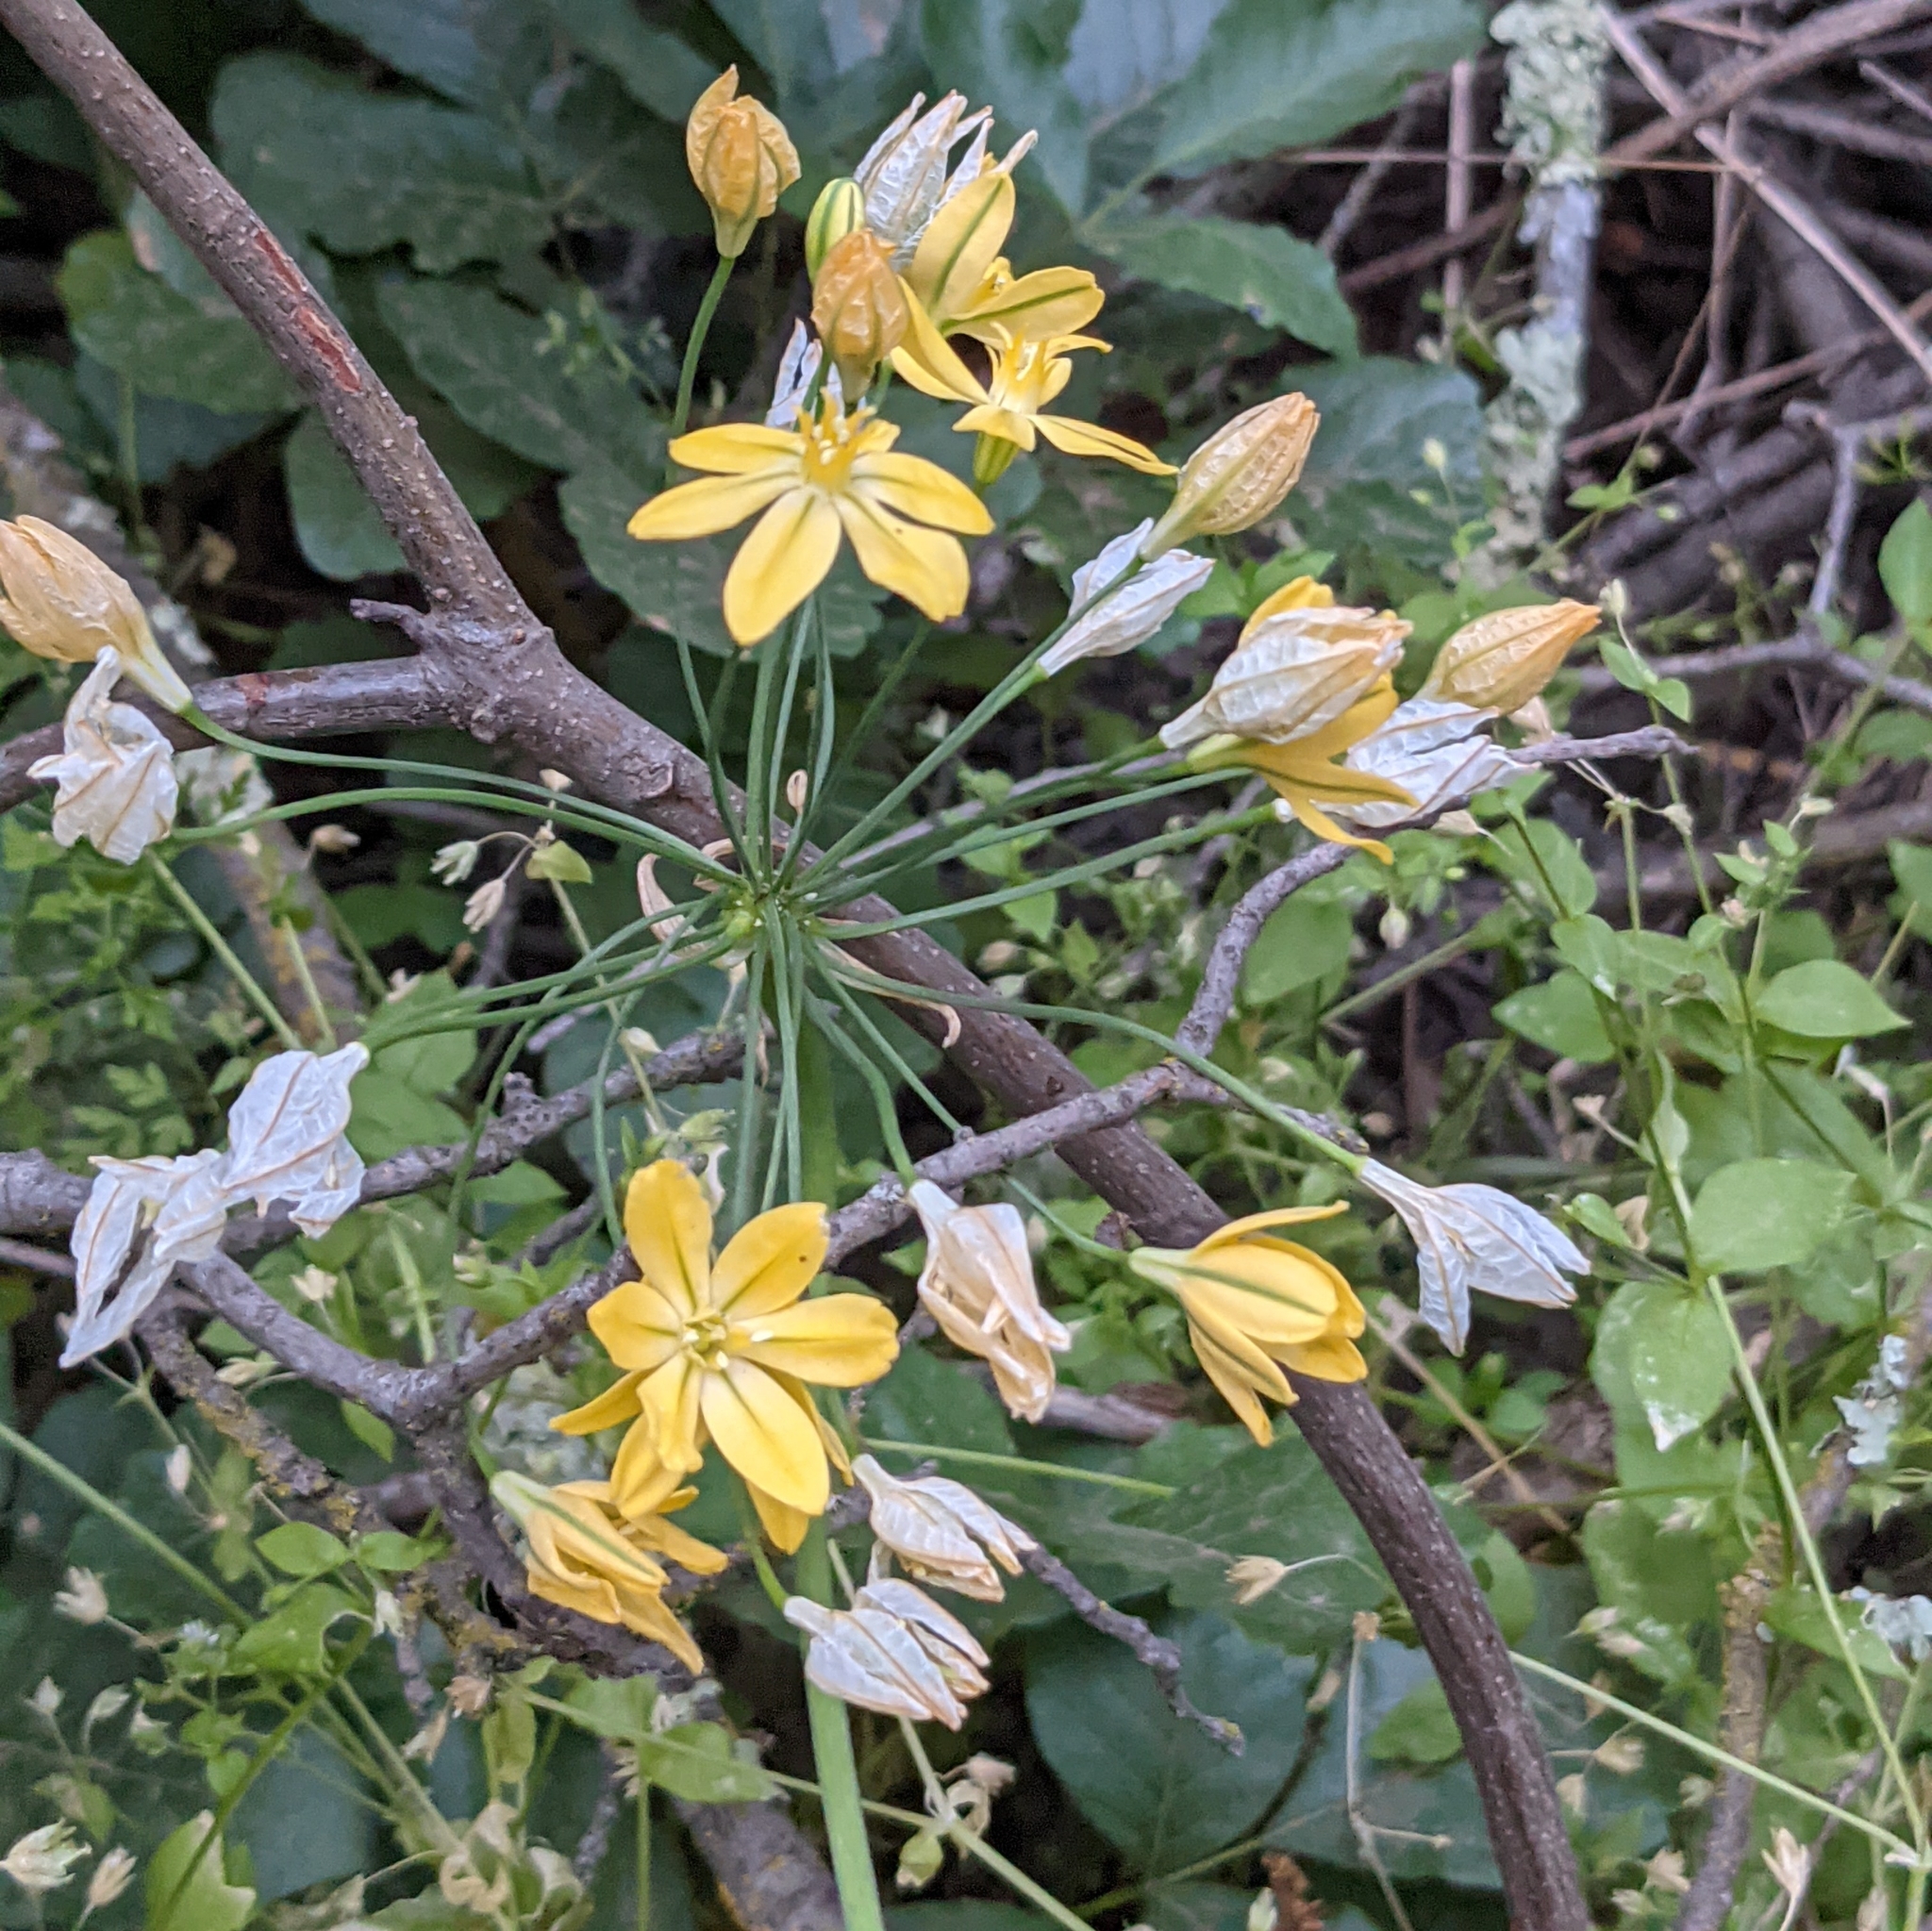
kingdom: Plantae
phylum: Tracheophyta
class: Liliopsida
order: Asparagales
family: Asparagaceae
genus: Triteleia
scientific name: Triteleia ixioides
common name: Yellow-brodiaea
